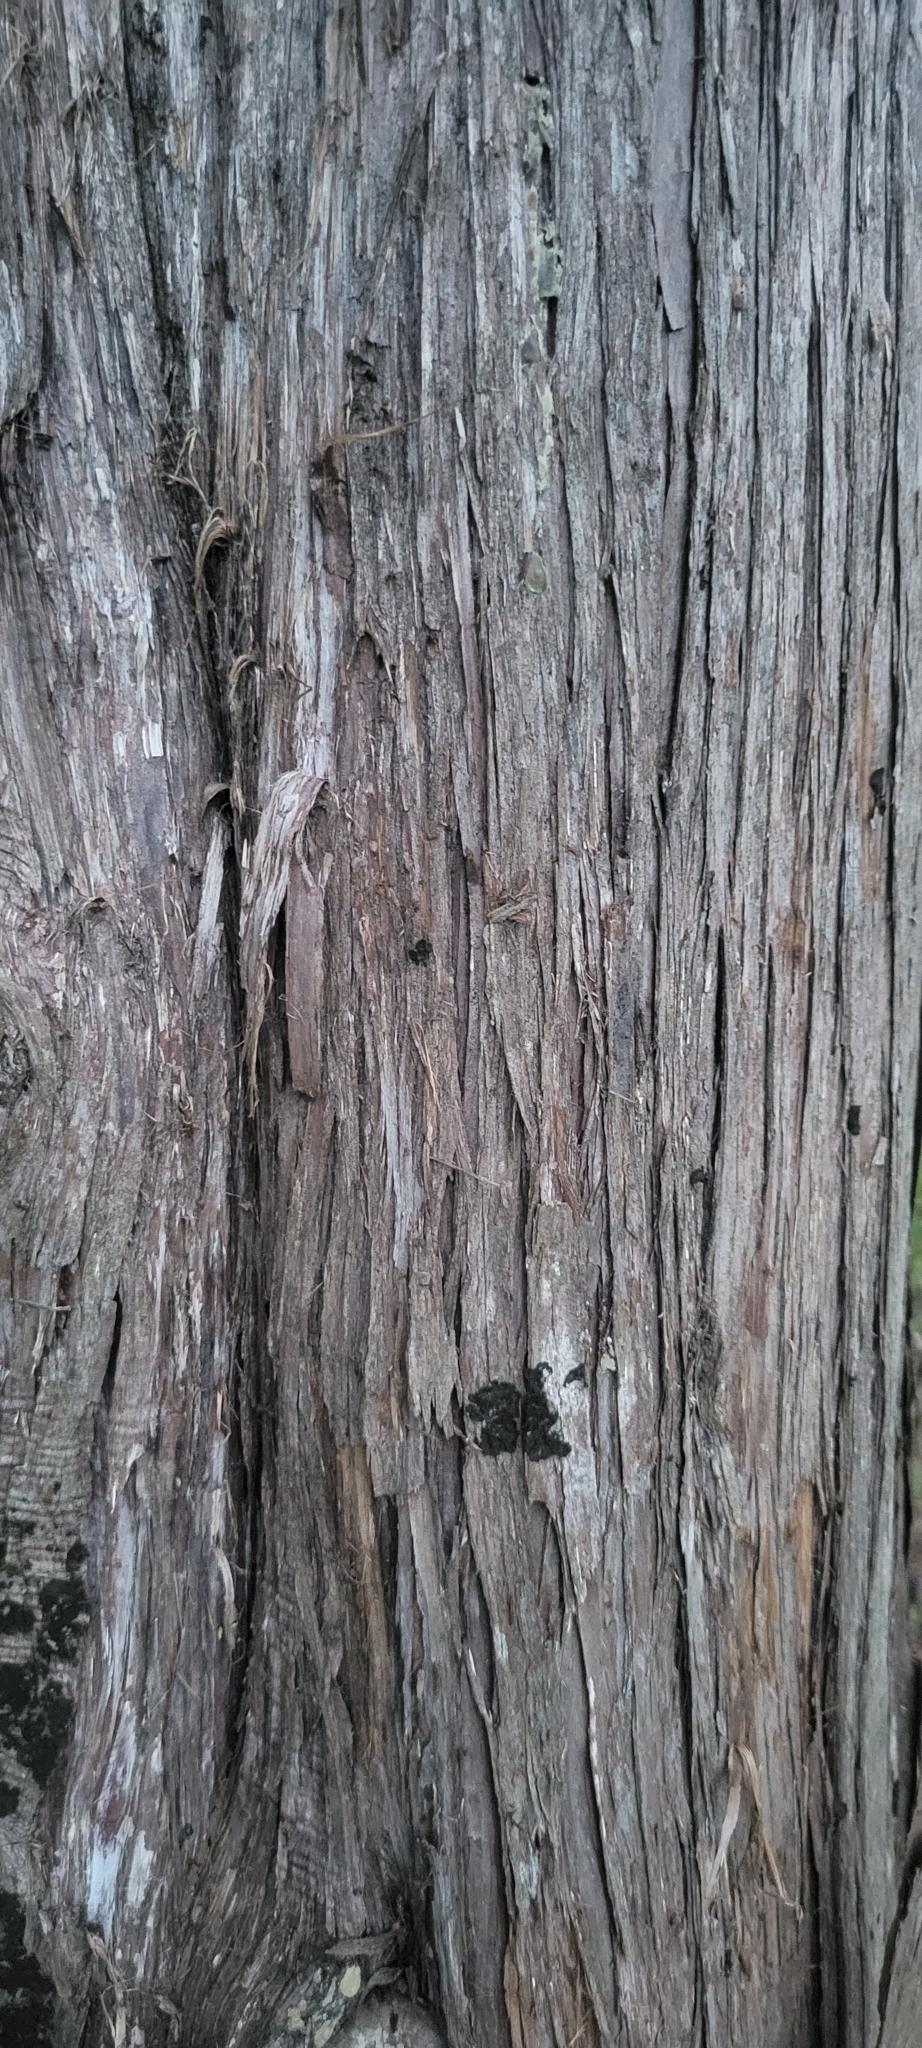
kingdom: Plantae
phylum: Tracheophyta
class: Pinopsida
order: Pinales
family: Cupressaceae
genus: Juniperus
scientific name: Juniperus virginiana
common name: Red juniper
